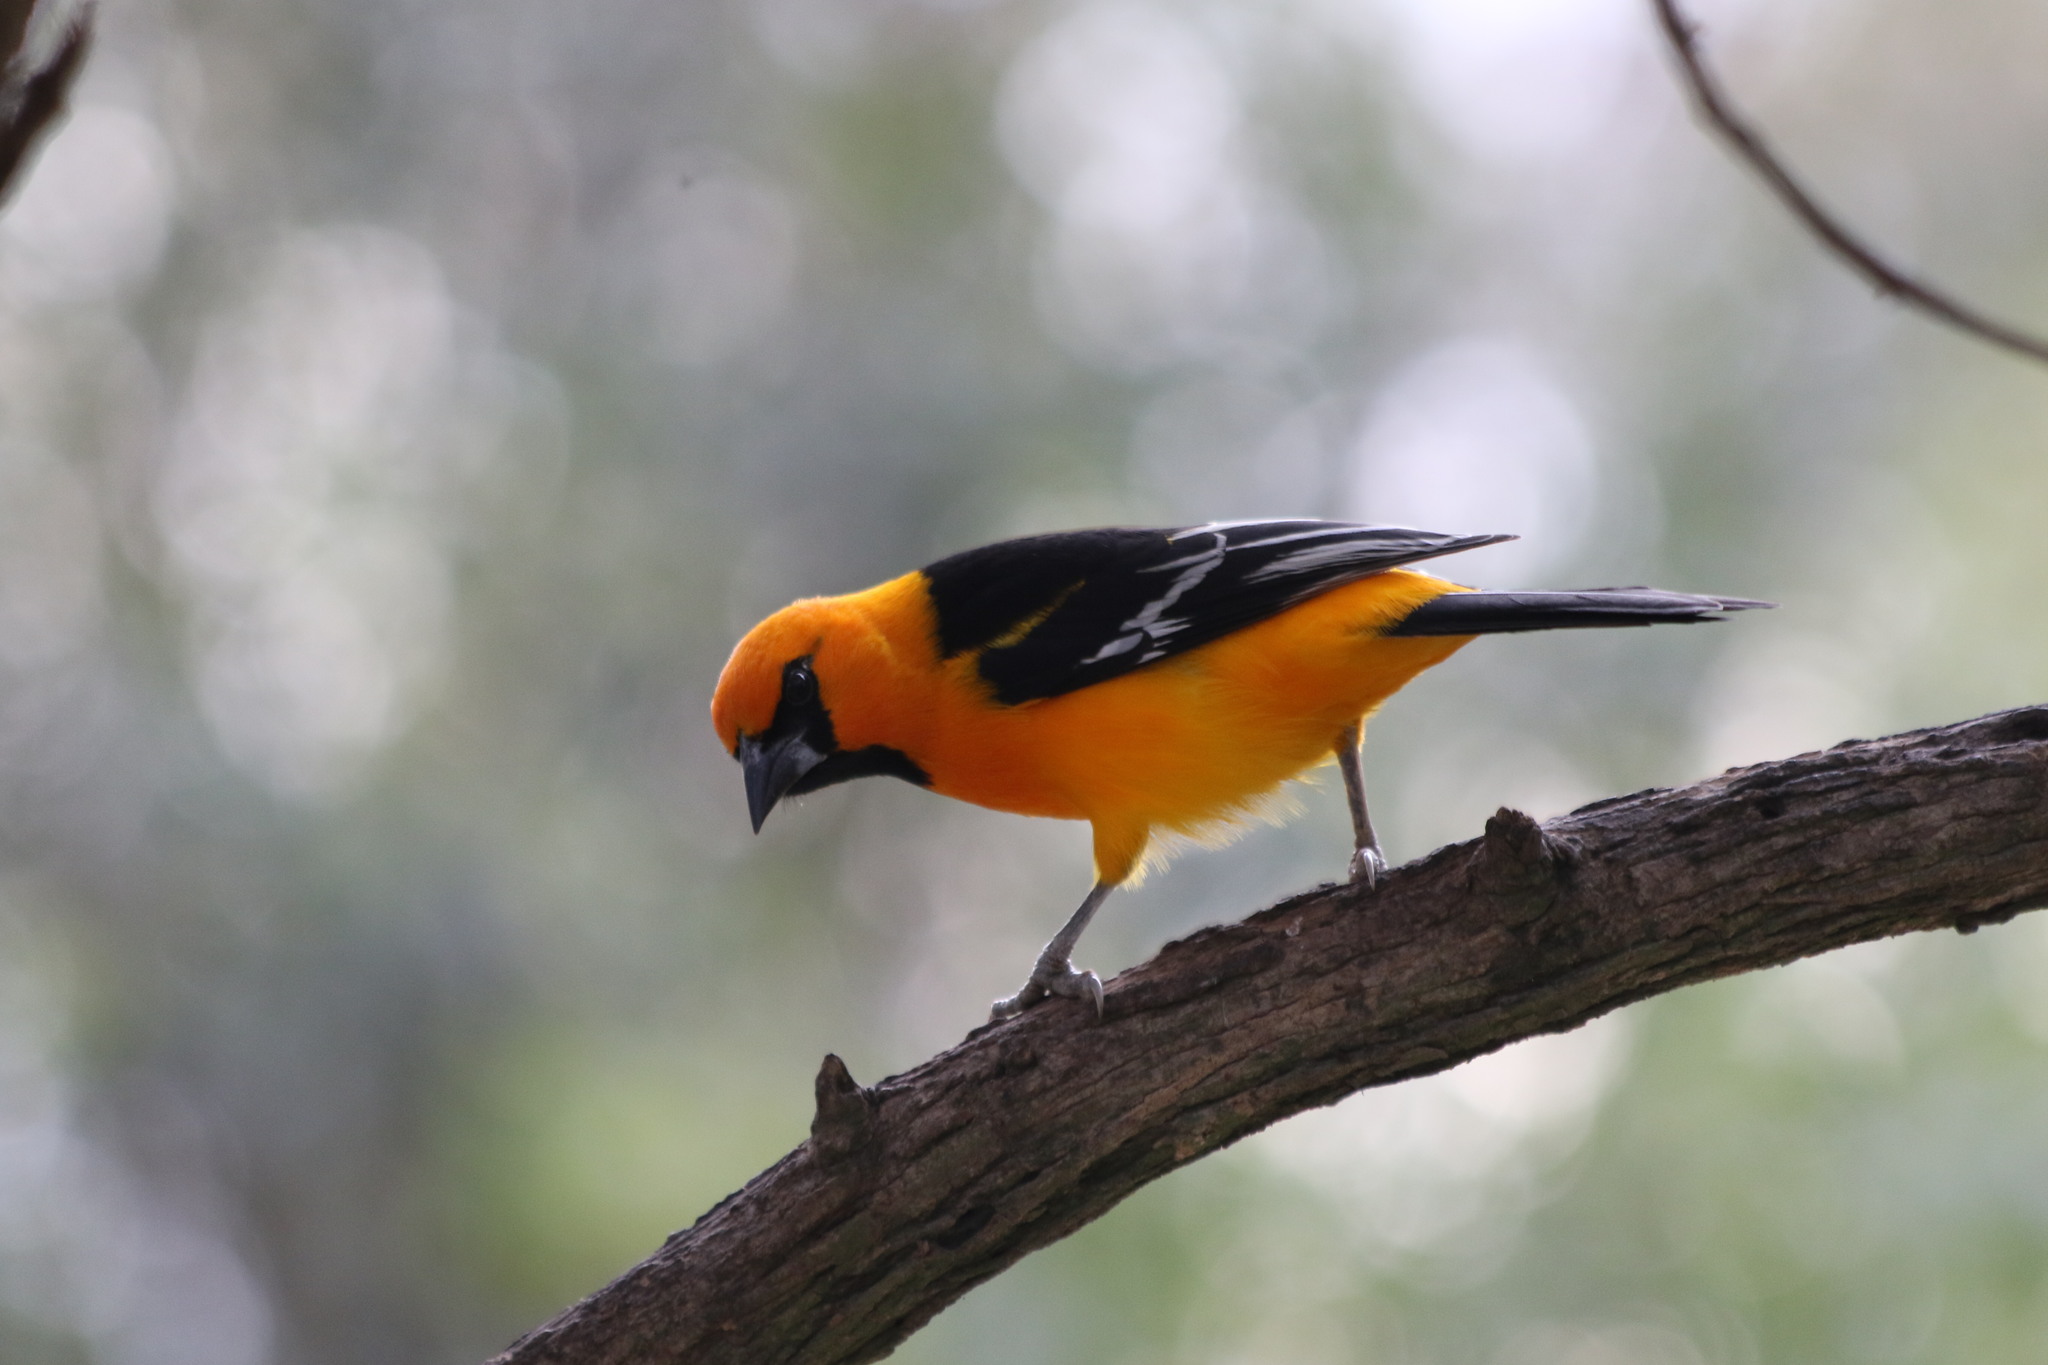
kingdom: Animalia
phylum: Chordata
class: Aves
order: Passeriformes
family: Icteridae
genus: Icterus
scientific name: Icterus gularis
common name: Altamira oriole
